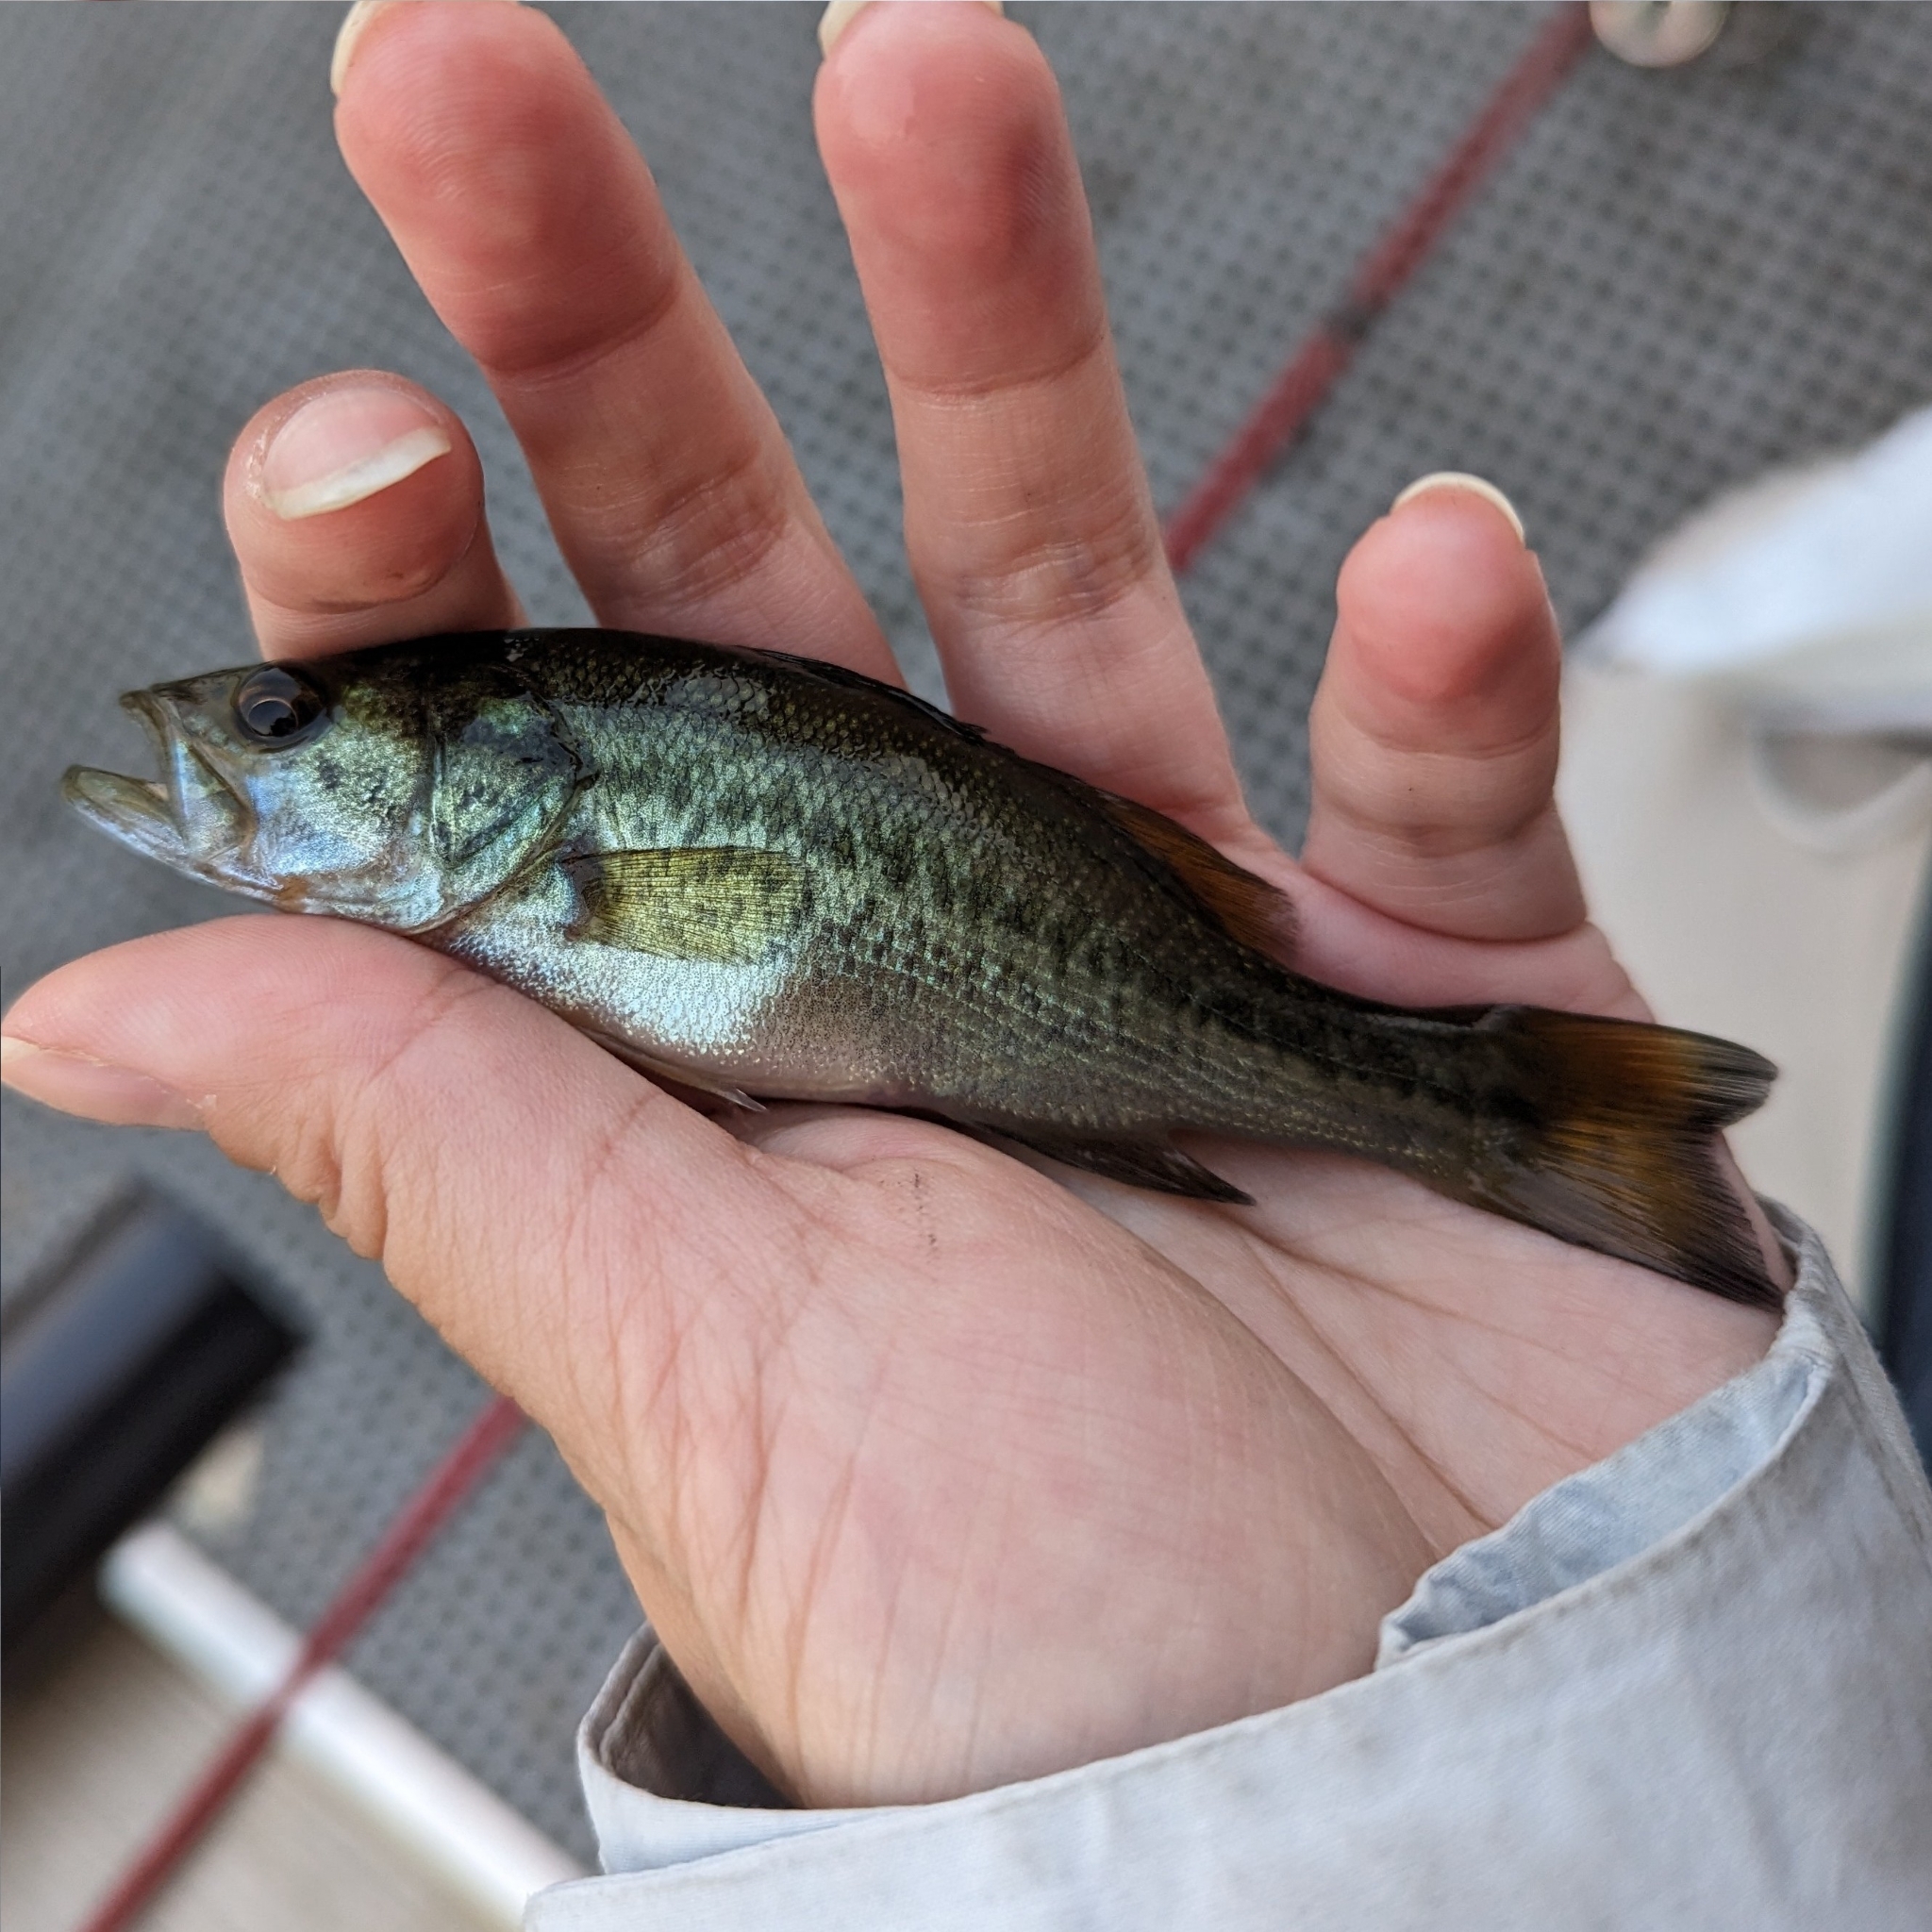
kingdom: Animalia
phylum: Chordata
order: Perciformes
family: Centrarchidae
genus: Micropterus
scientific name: Micropterus
